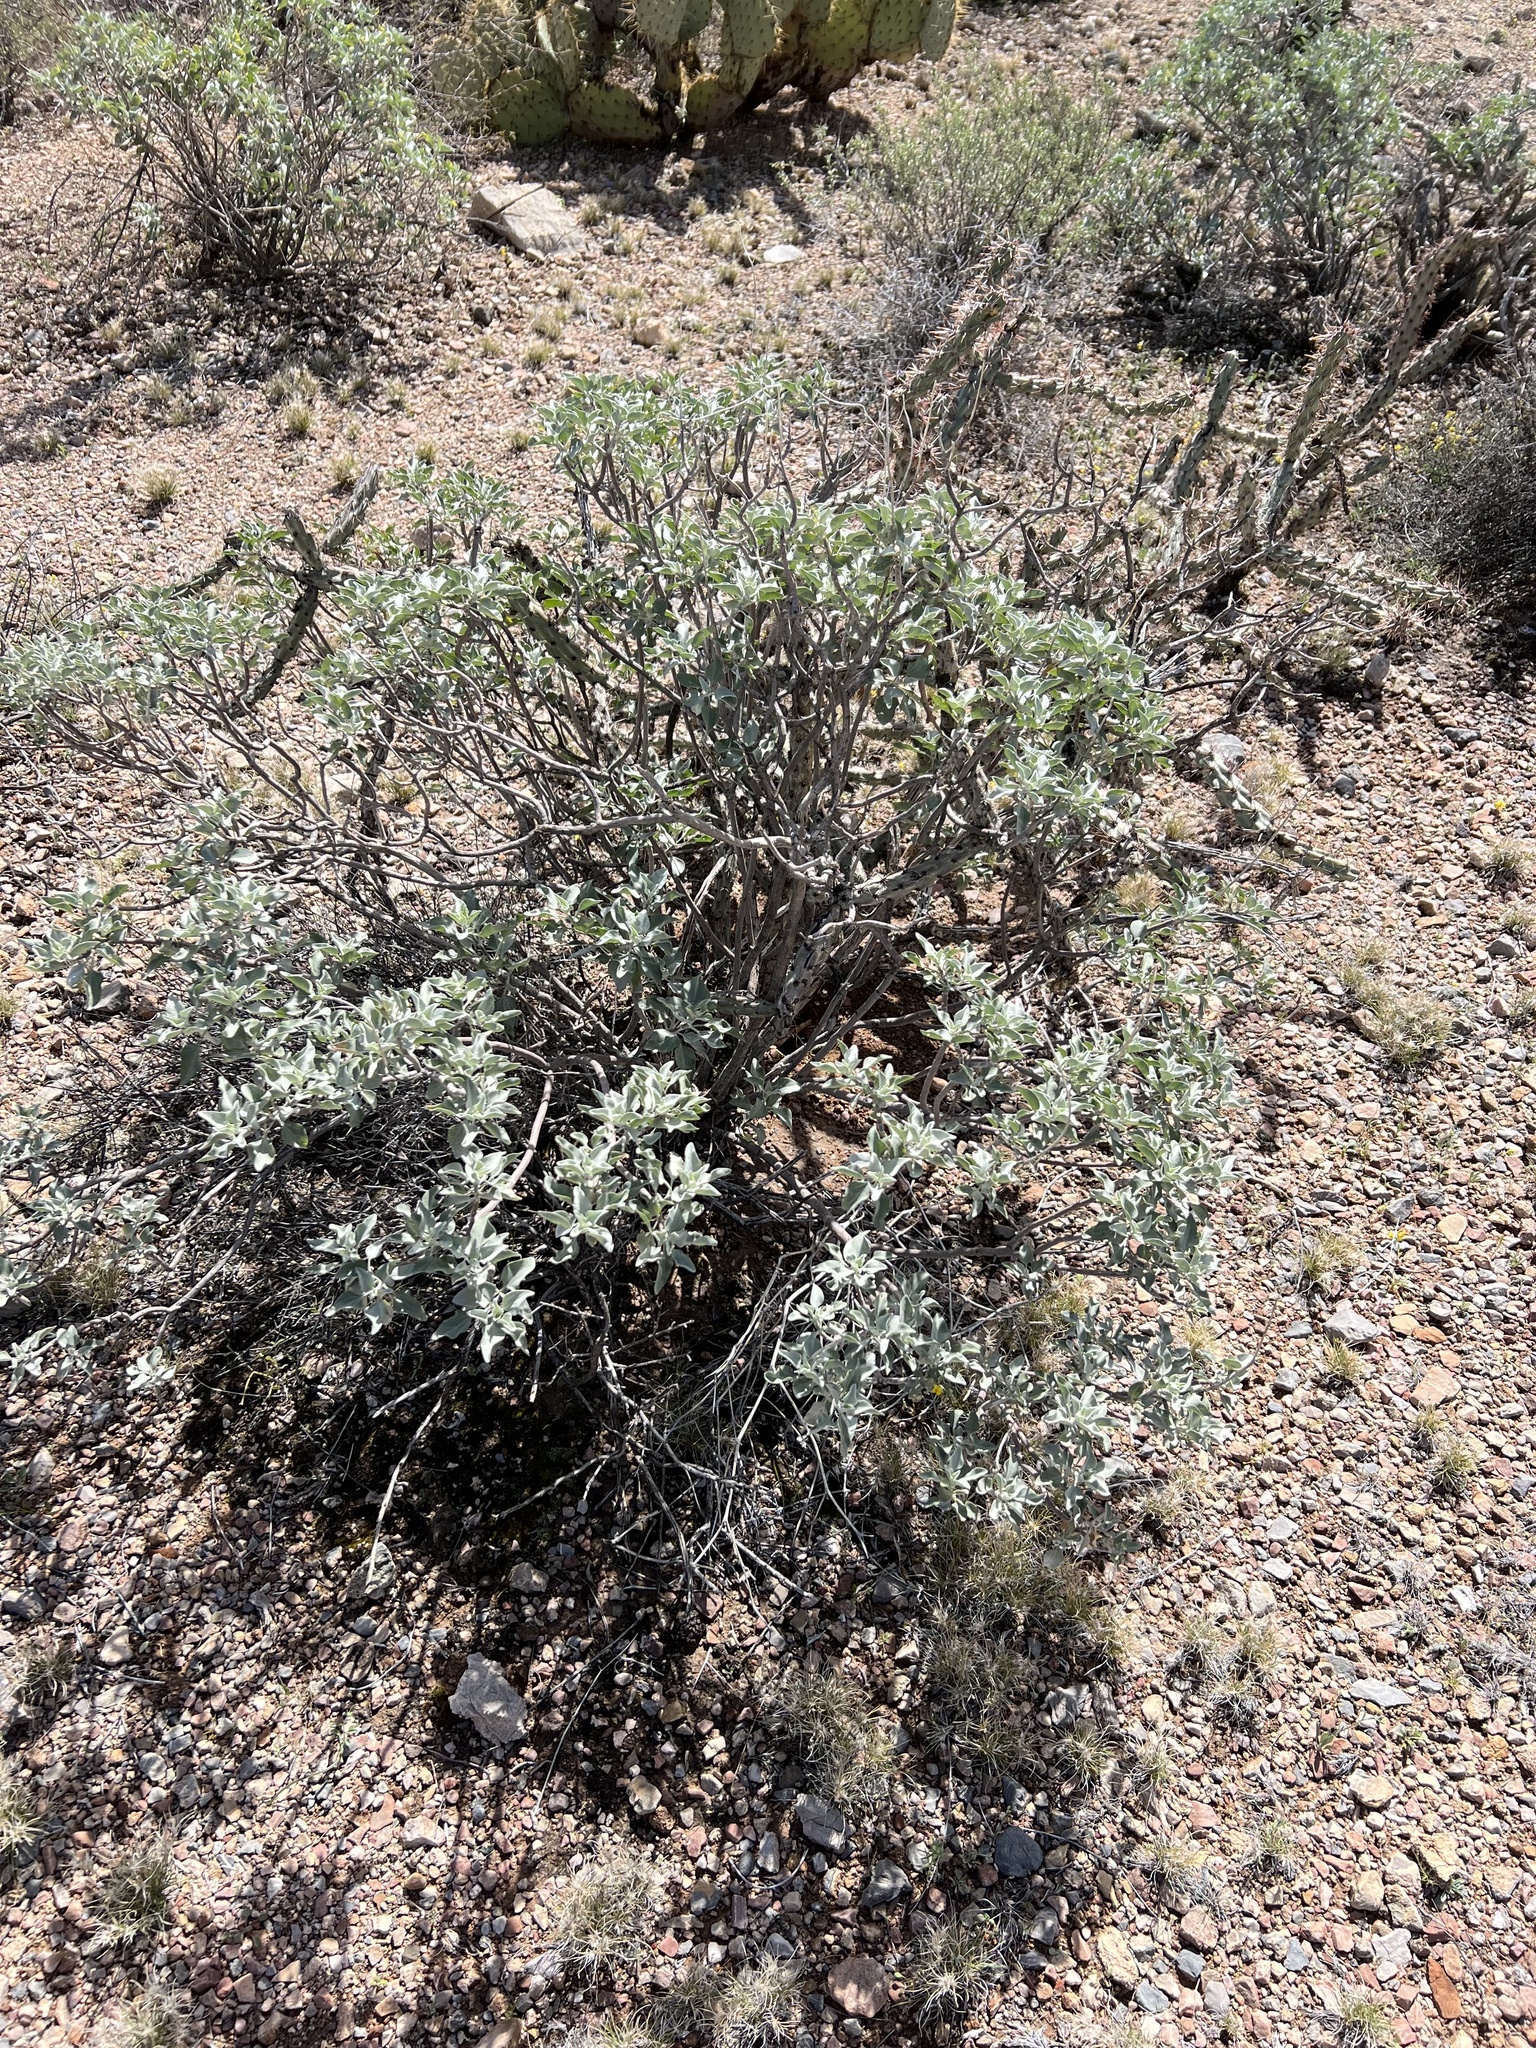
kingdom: Plantae
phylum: Tracheophyta
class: Magnoliopsida
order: Asterales
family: Asteraceae
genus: Encelia
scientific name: Encelia farinosa
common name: Brittlebush
